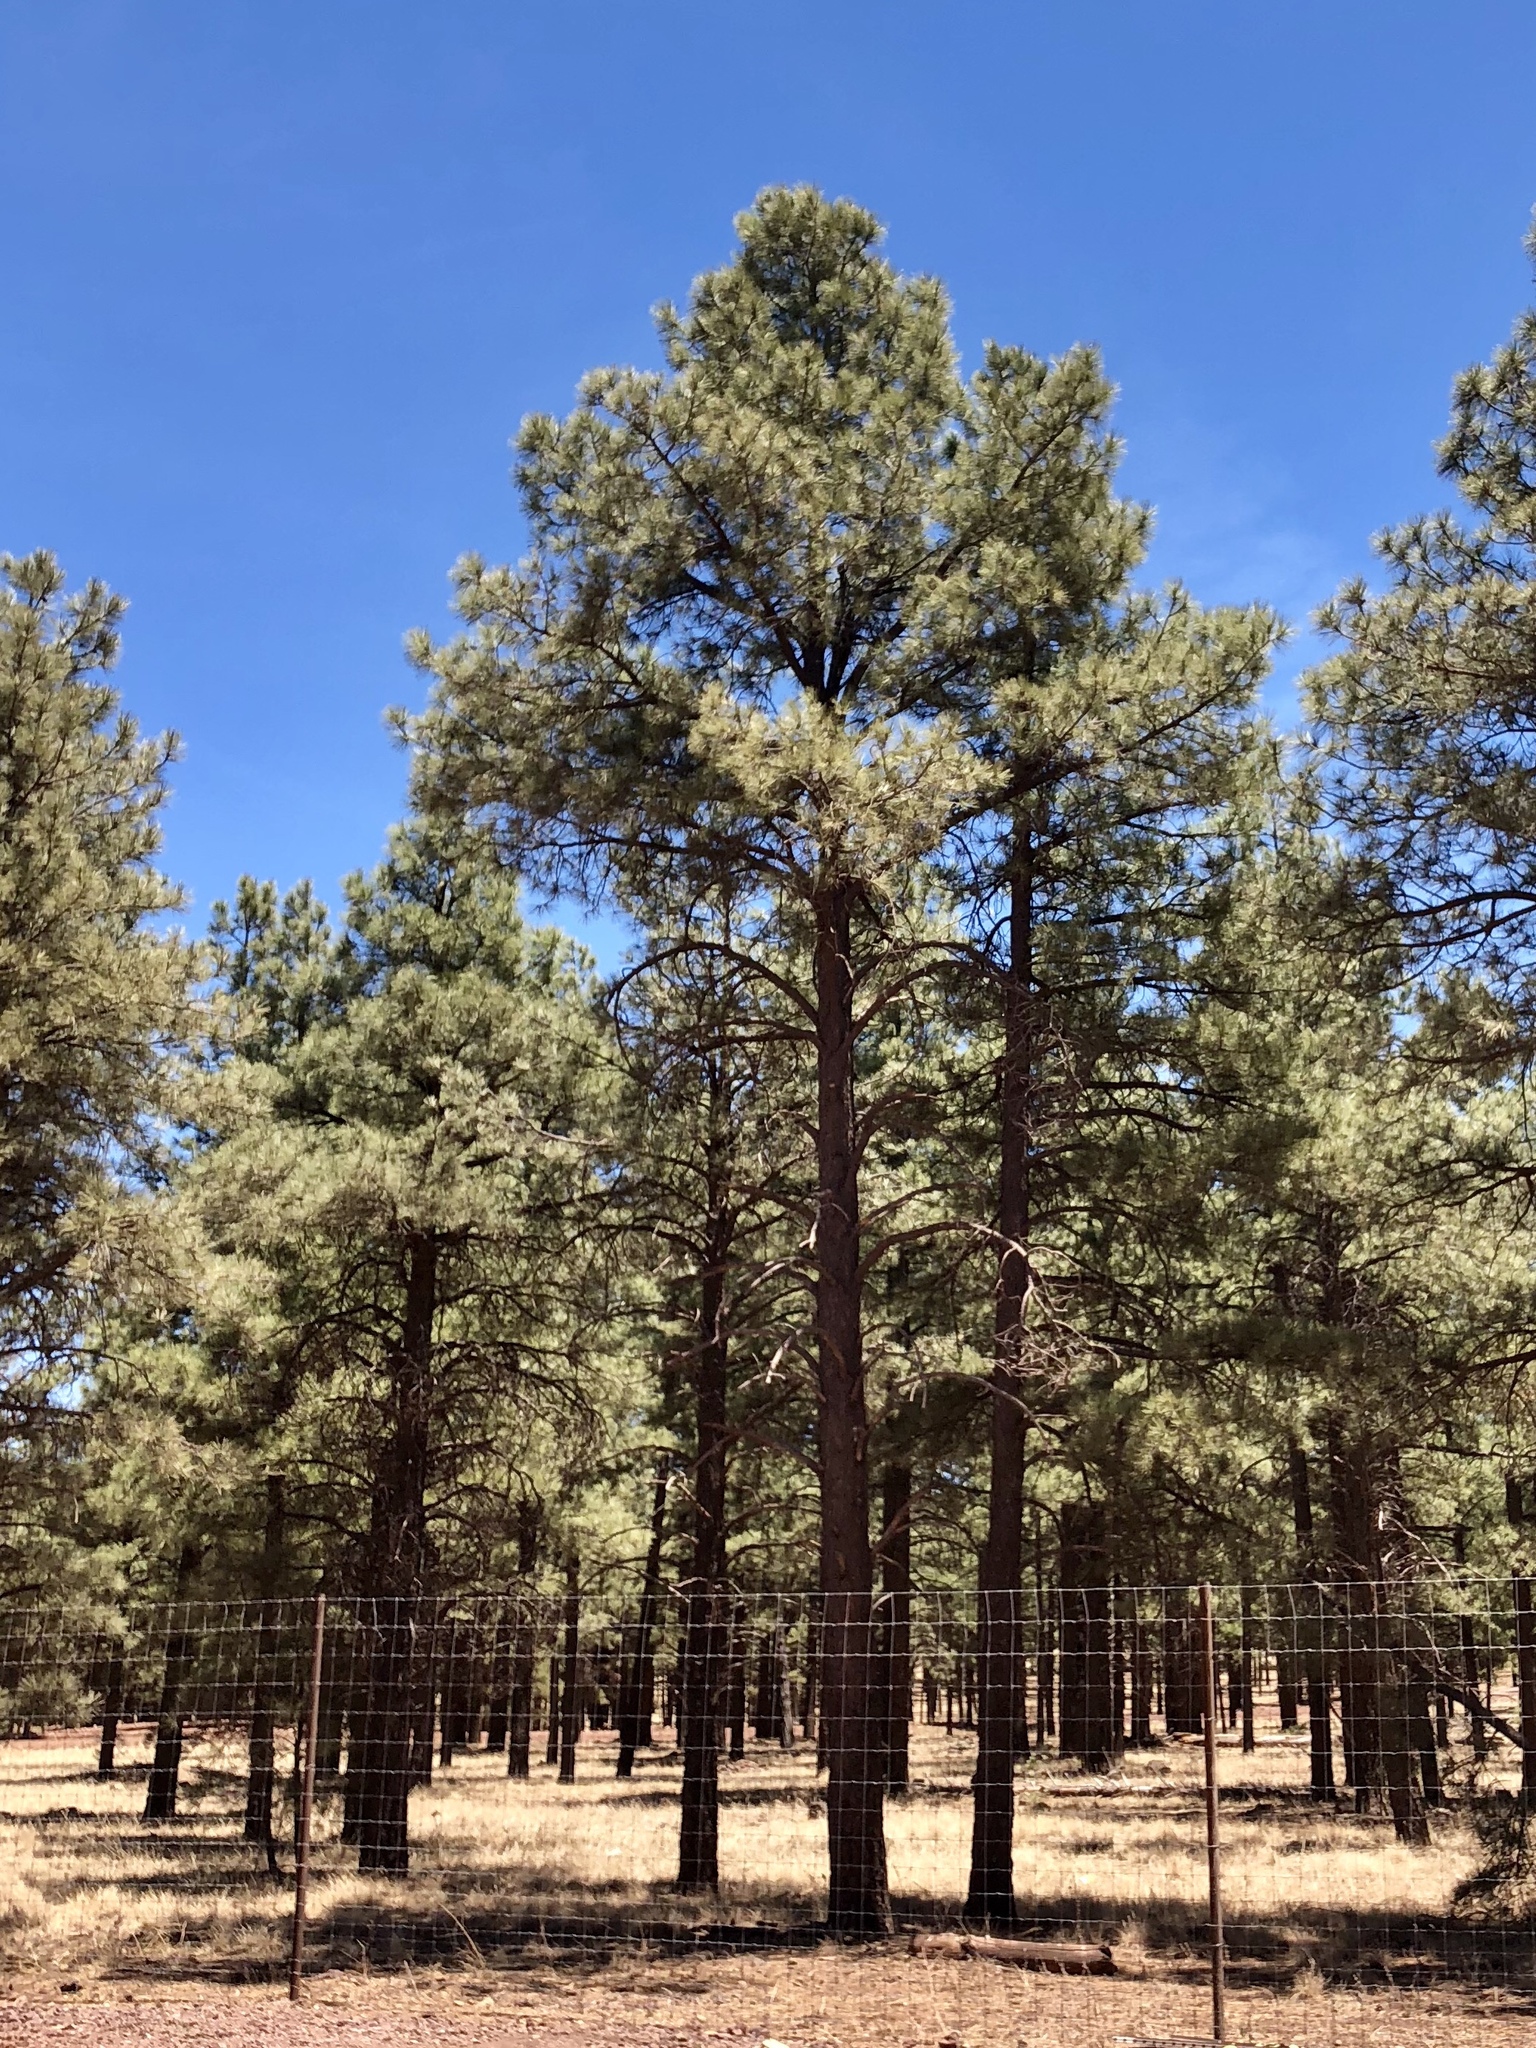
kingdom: Plantae
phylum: Tracheophyta
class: Pinopsida
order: Pinales
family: Pinaceae
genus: Pinus
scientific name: Pinus ponderosa
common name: Western yellow-pine
